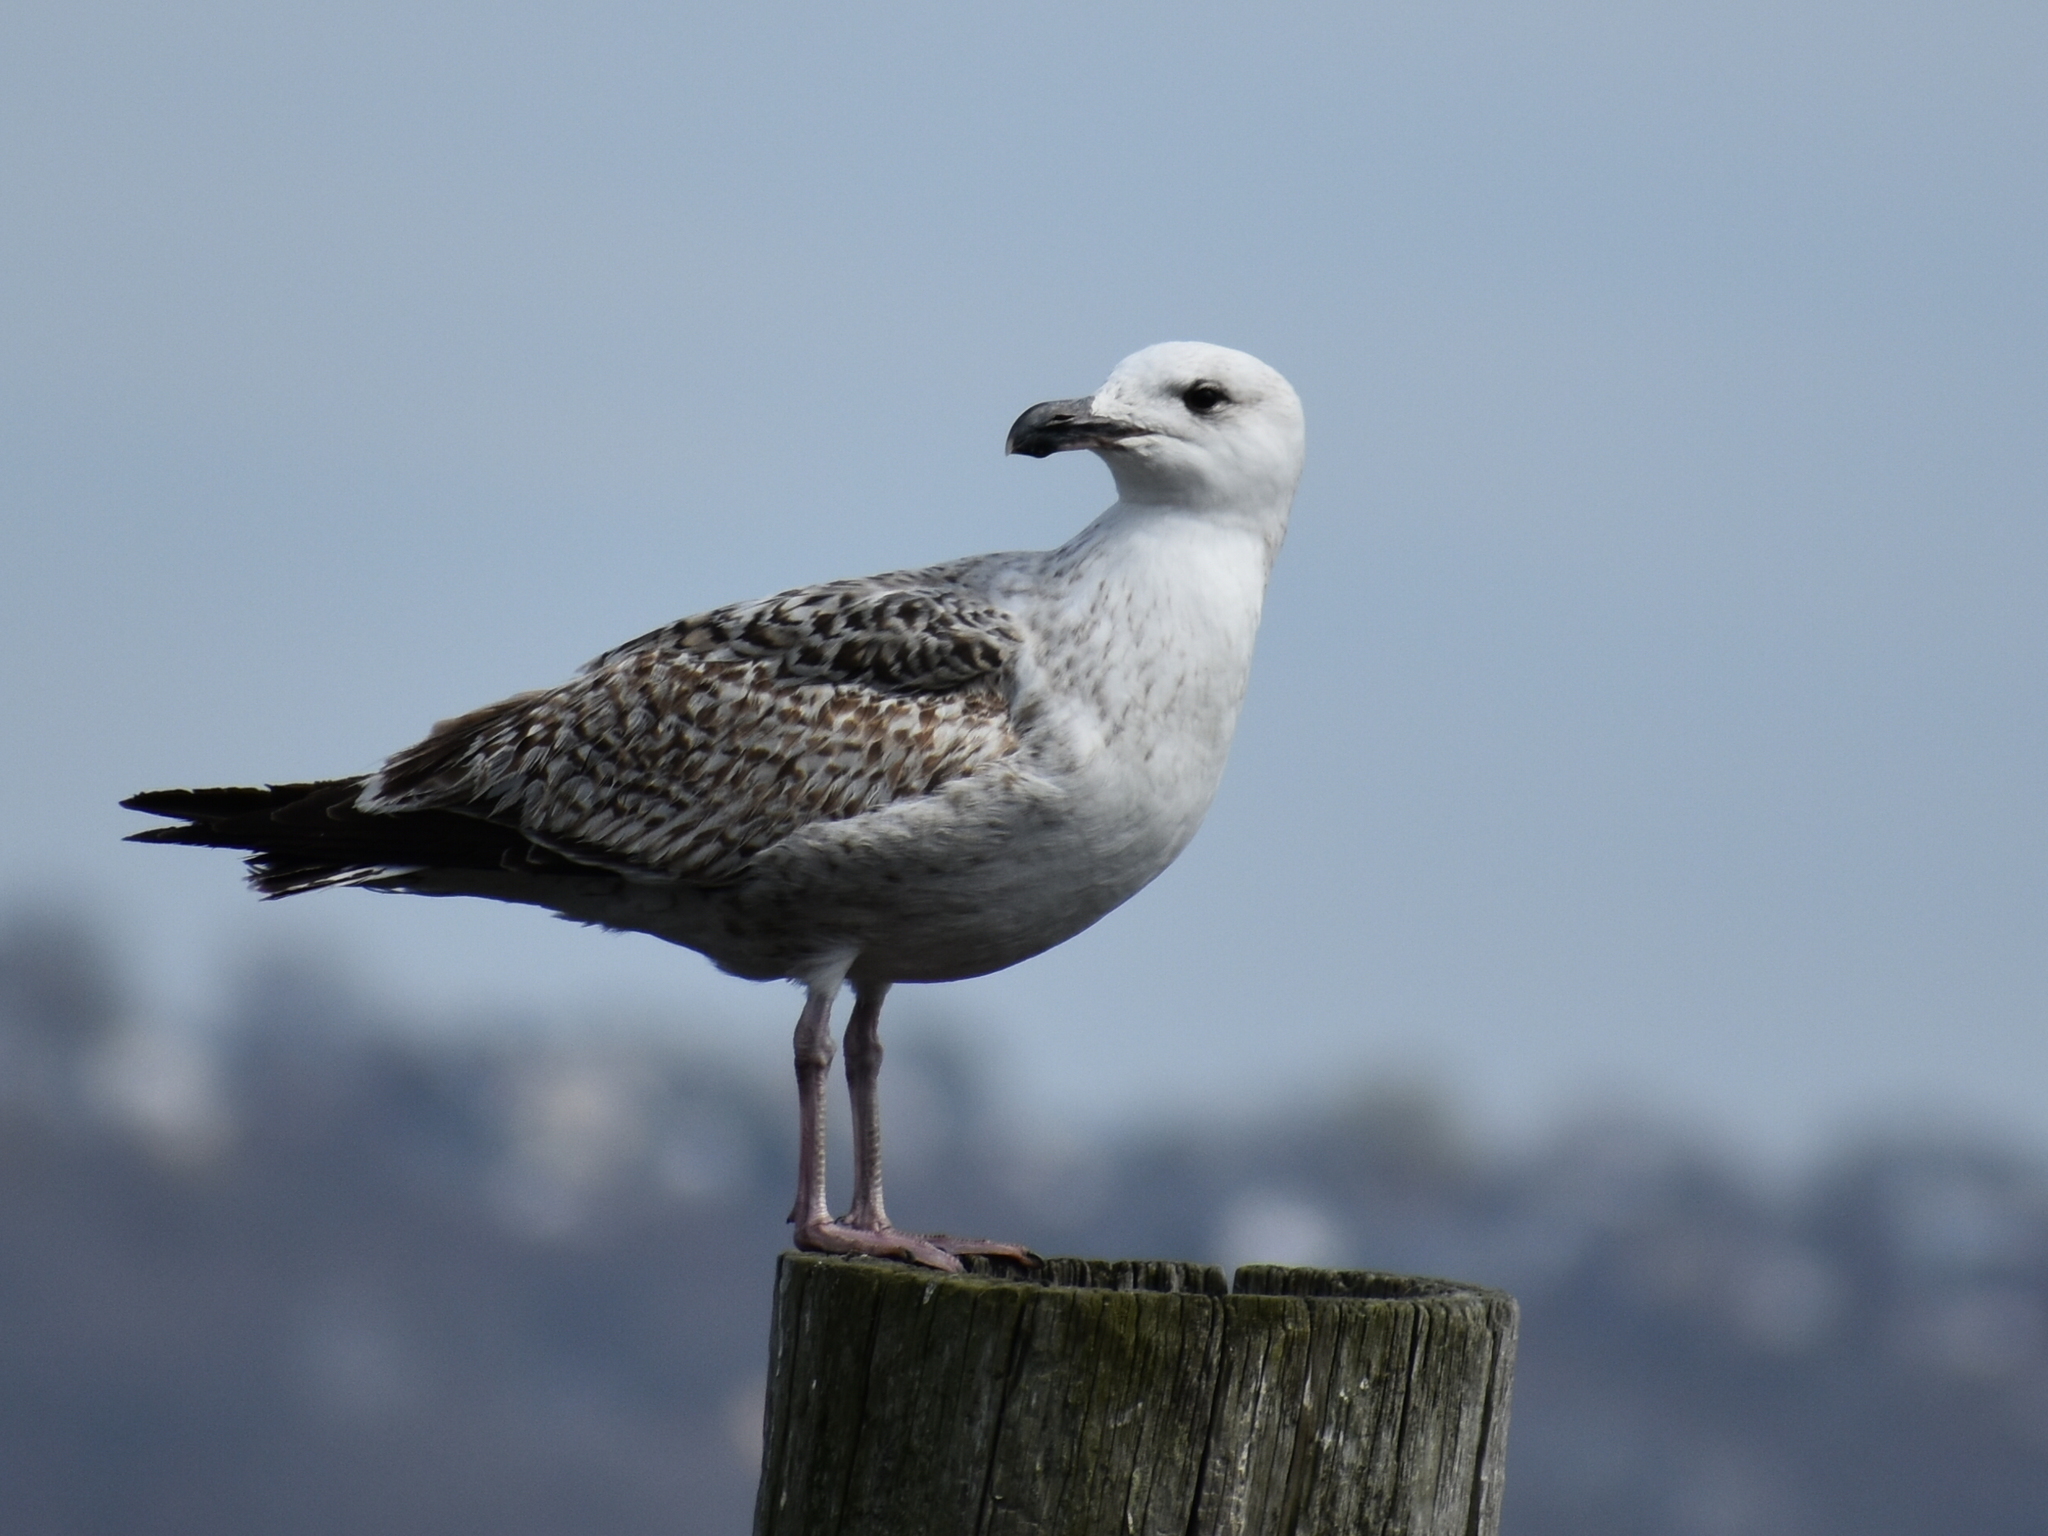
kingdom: Animalia
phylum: Chordata
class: Aves
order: Charadriiformes
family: Laridae
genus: Larus
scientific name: Larus marinus
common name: Great black-backed gull
